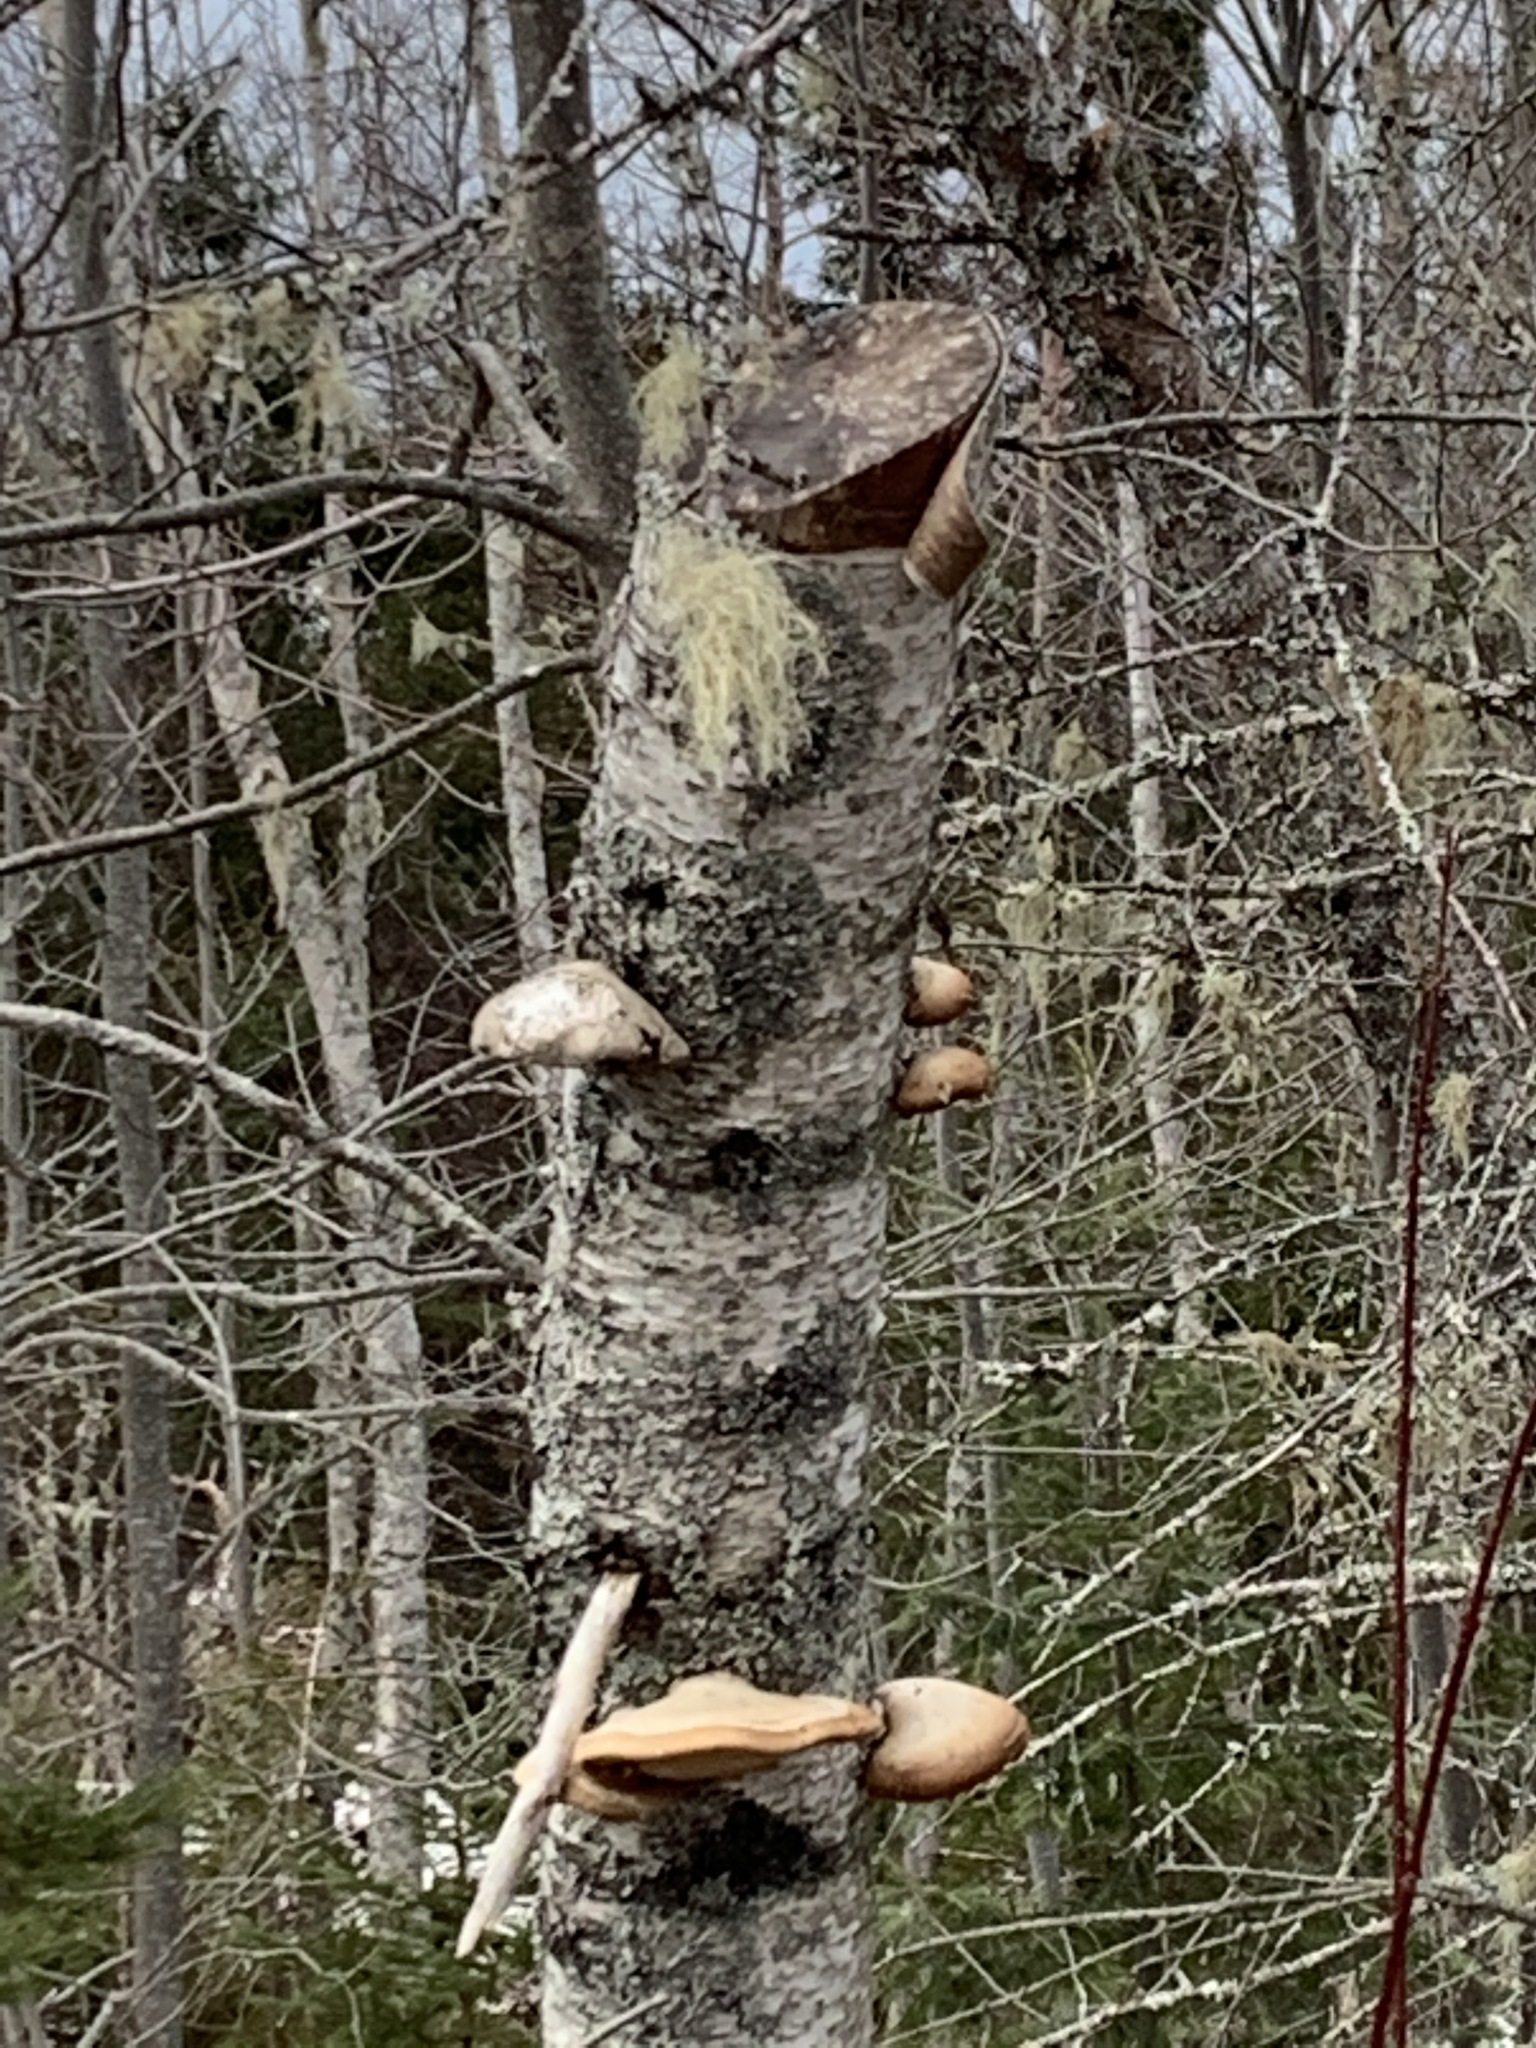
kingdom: Fungi
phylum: Basidiomycota
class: Agaricomycetes
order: Polyporales
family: Fomitopsidaceae
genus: Fomitopsis
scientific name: Fomitopsis betulina
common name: Birch polypore
